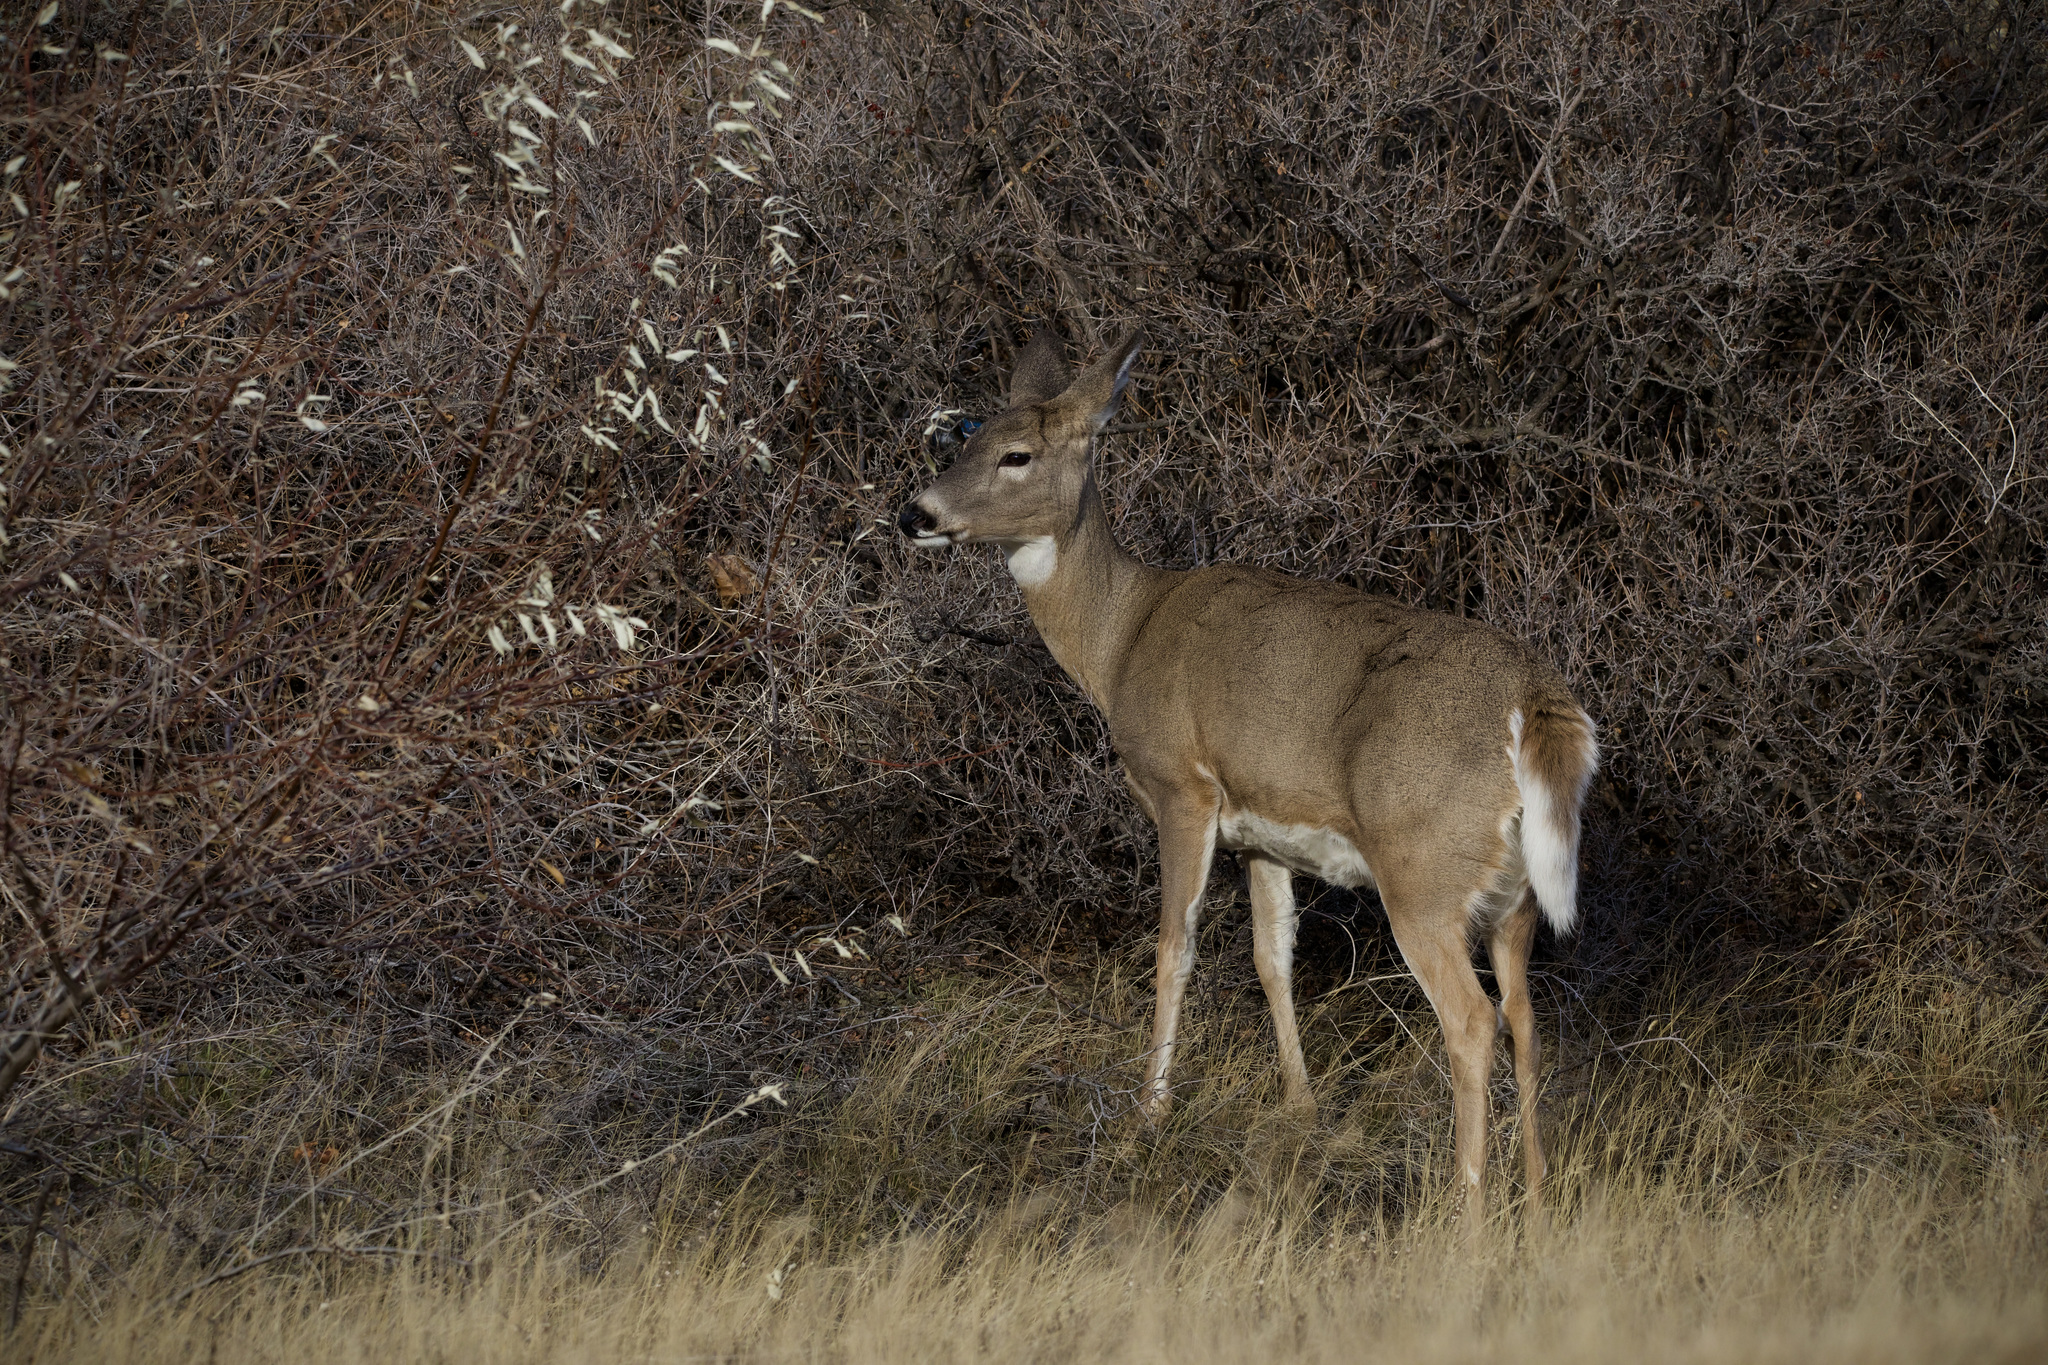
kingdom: Animalia
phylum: Chordata
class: Mammalia
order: Artiodactyla
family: Cervidae
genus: Odocoileus
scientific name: Odocoileus virginianus
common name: White-tailed deer
